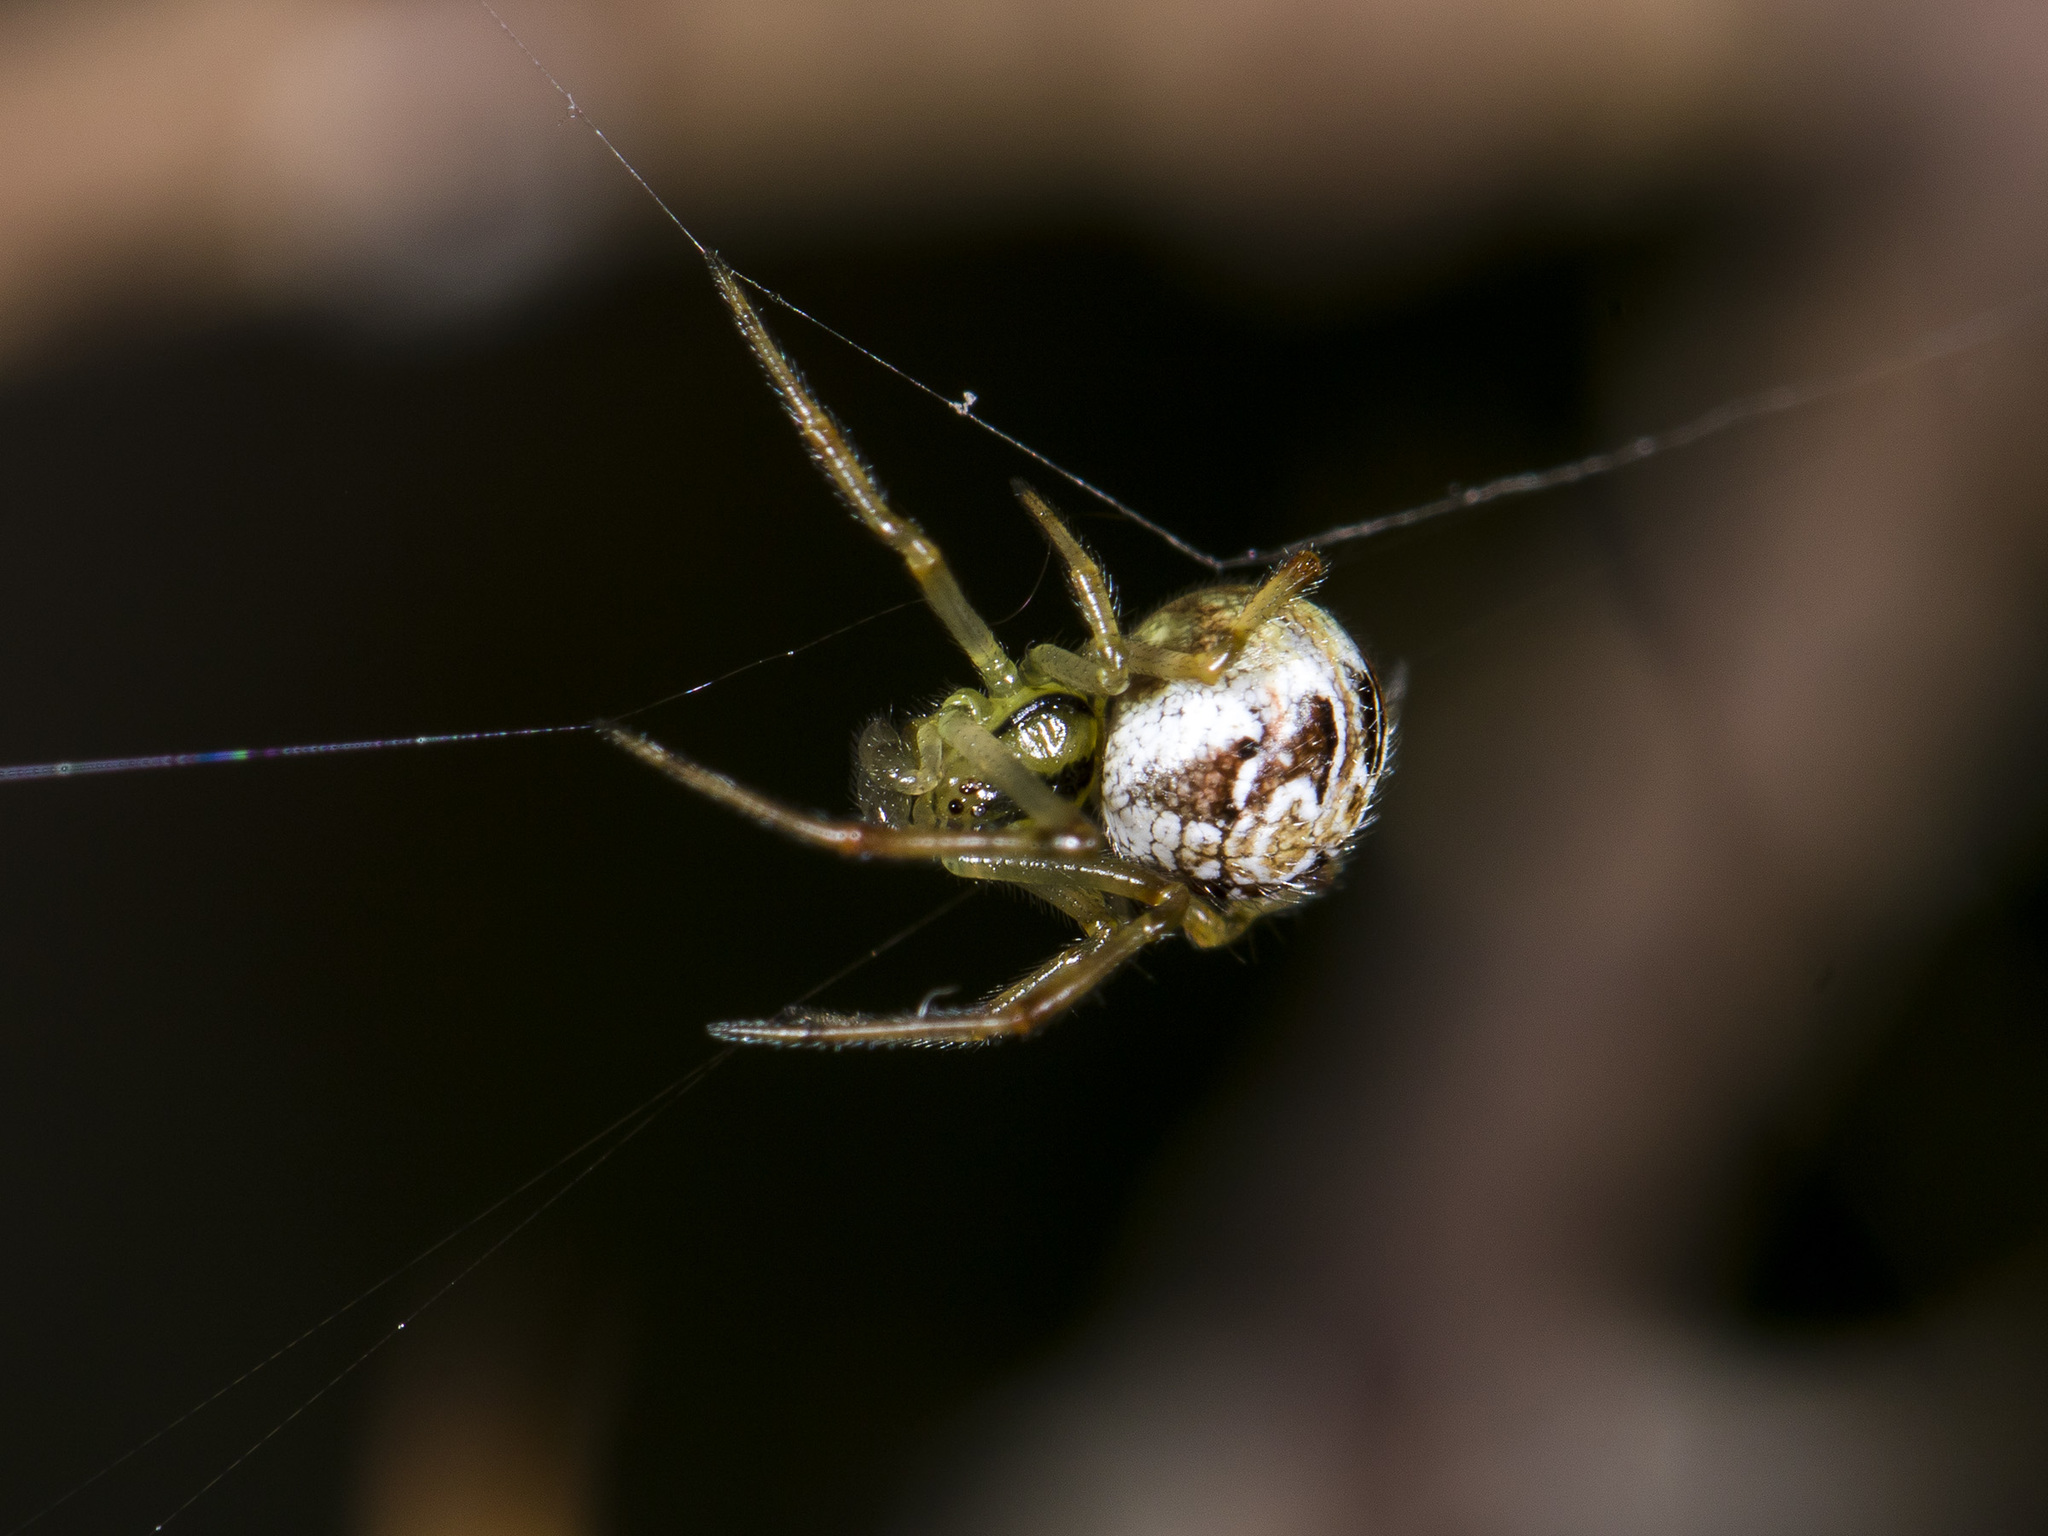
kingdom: Animalia
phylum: Arthropoda
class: Arachnida
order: Araneae
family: Theridiidae
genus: Phylloneta
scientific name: Phylloneta impressa
